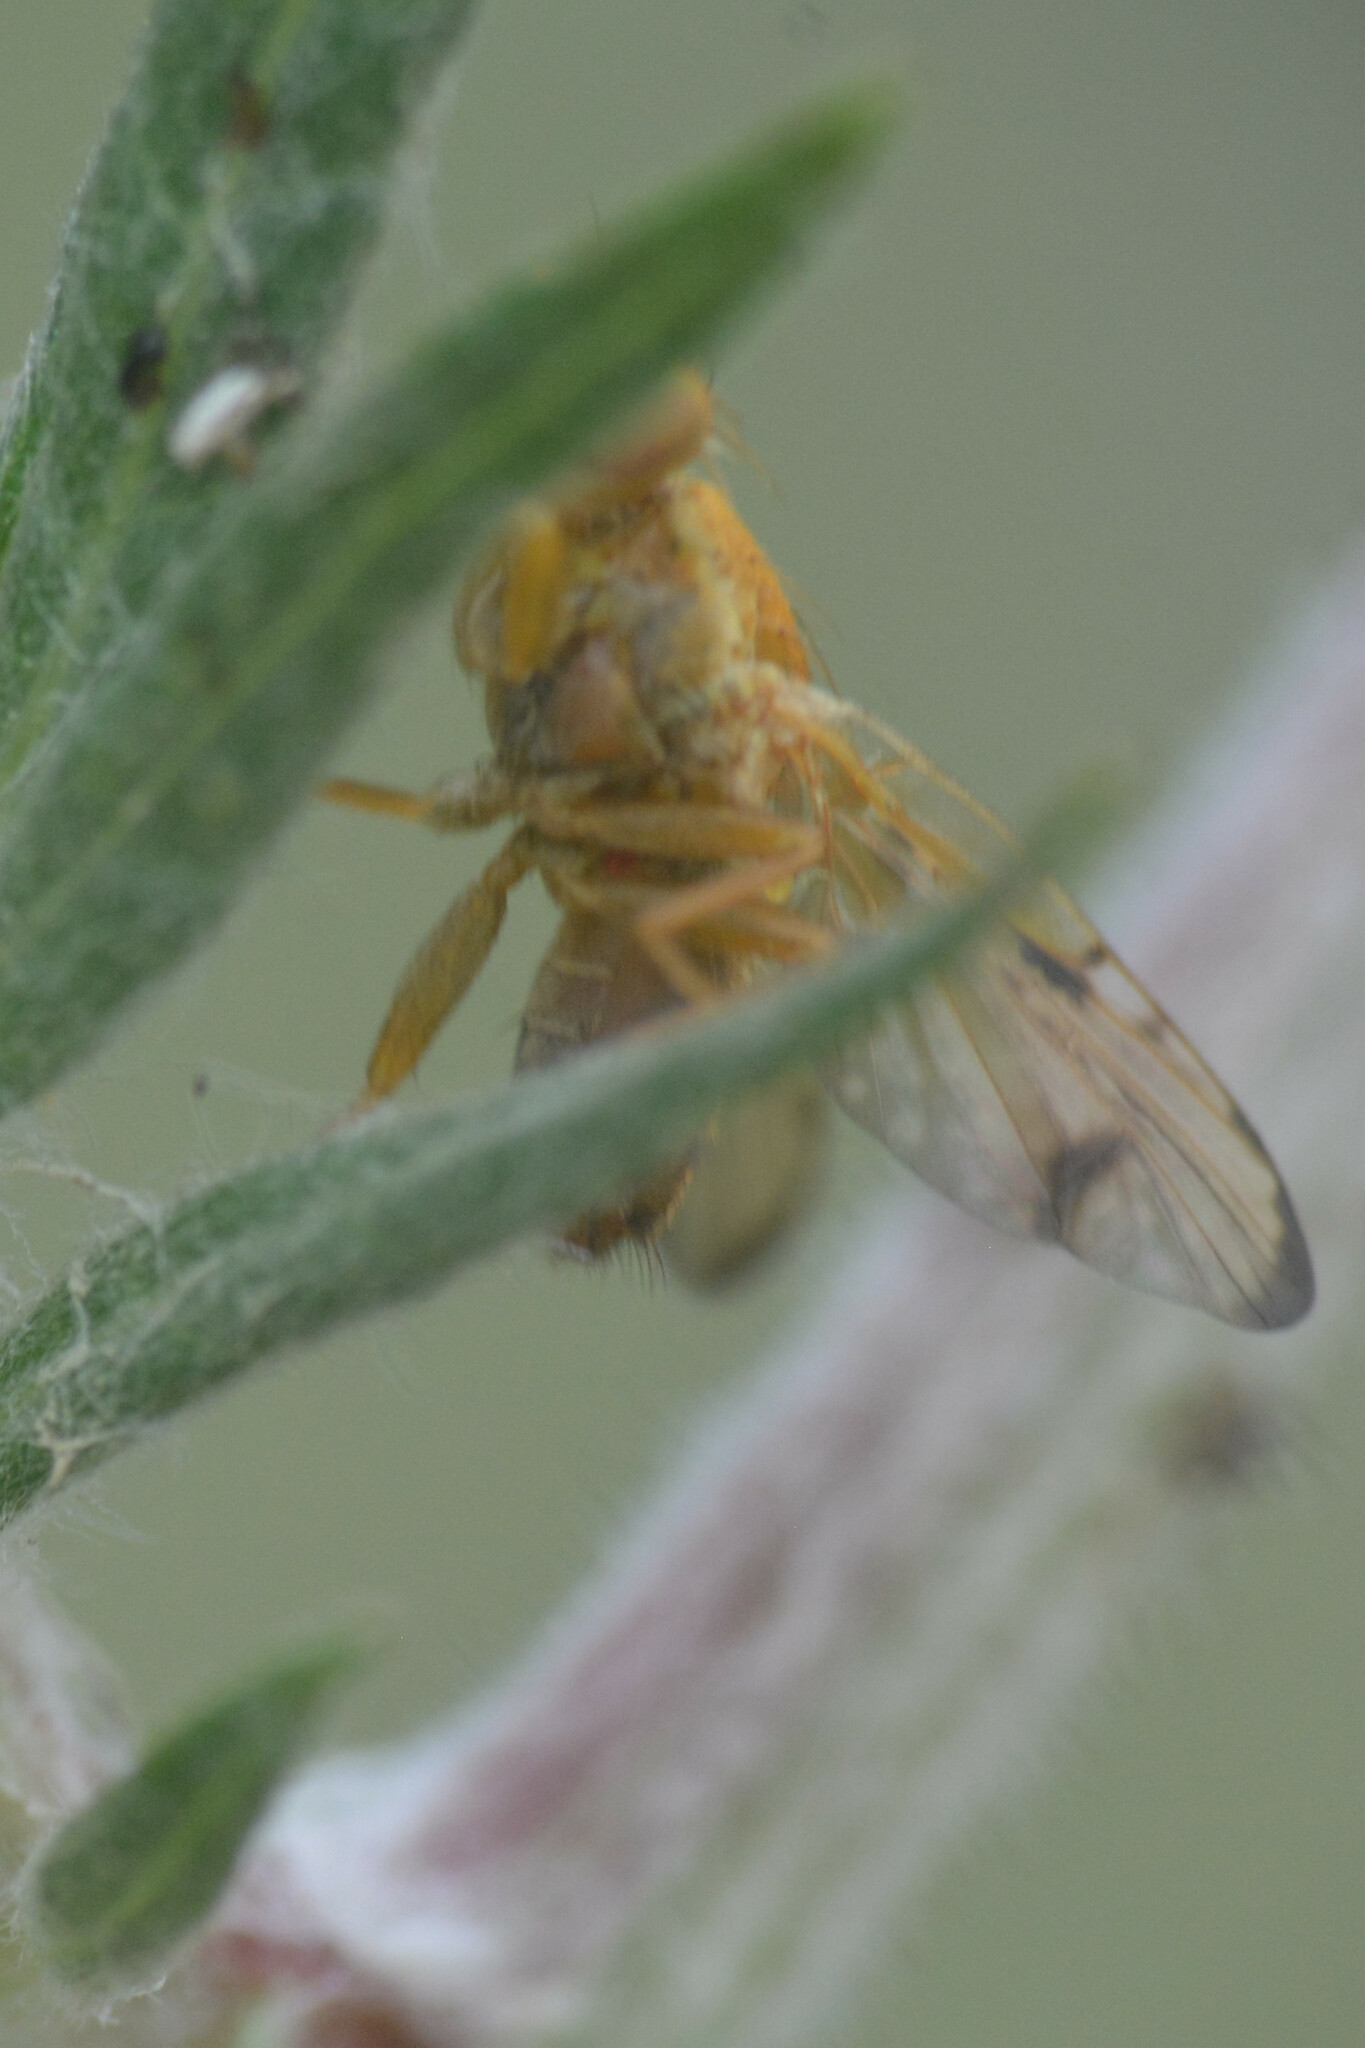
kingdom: Animalia
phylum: Arthropoda
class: Insecta
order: Diptera
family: Tephritidae
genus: Xyphosia
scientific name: Xyphosia miliaria
